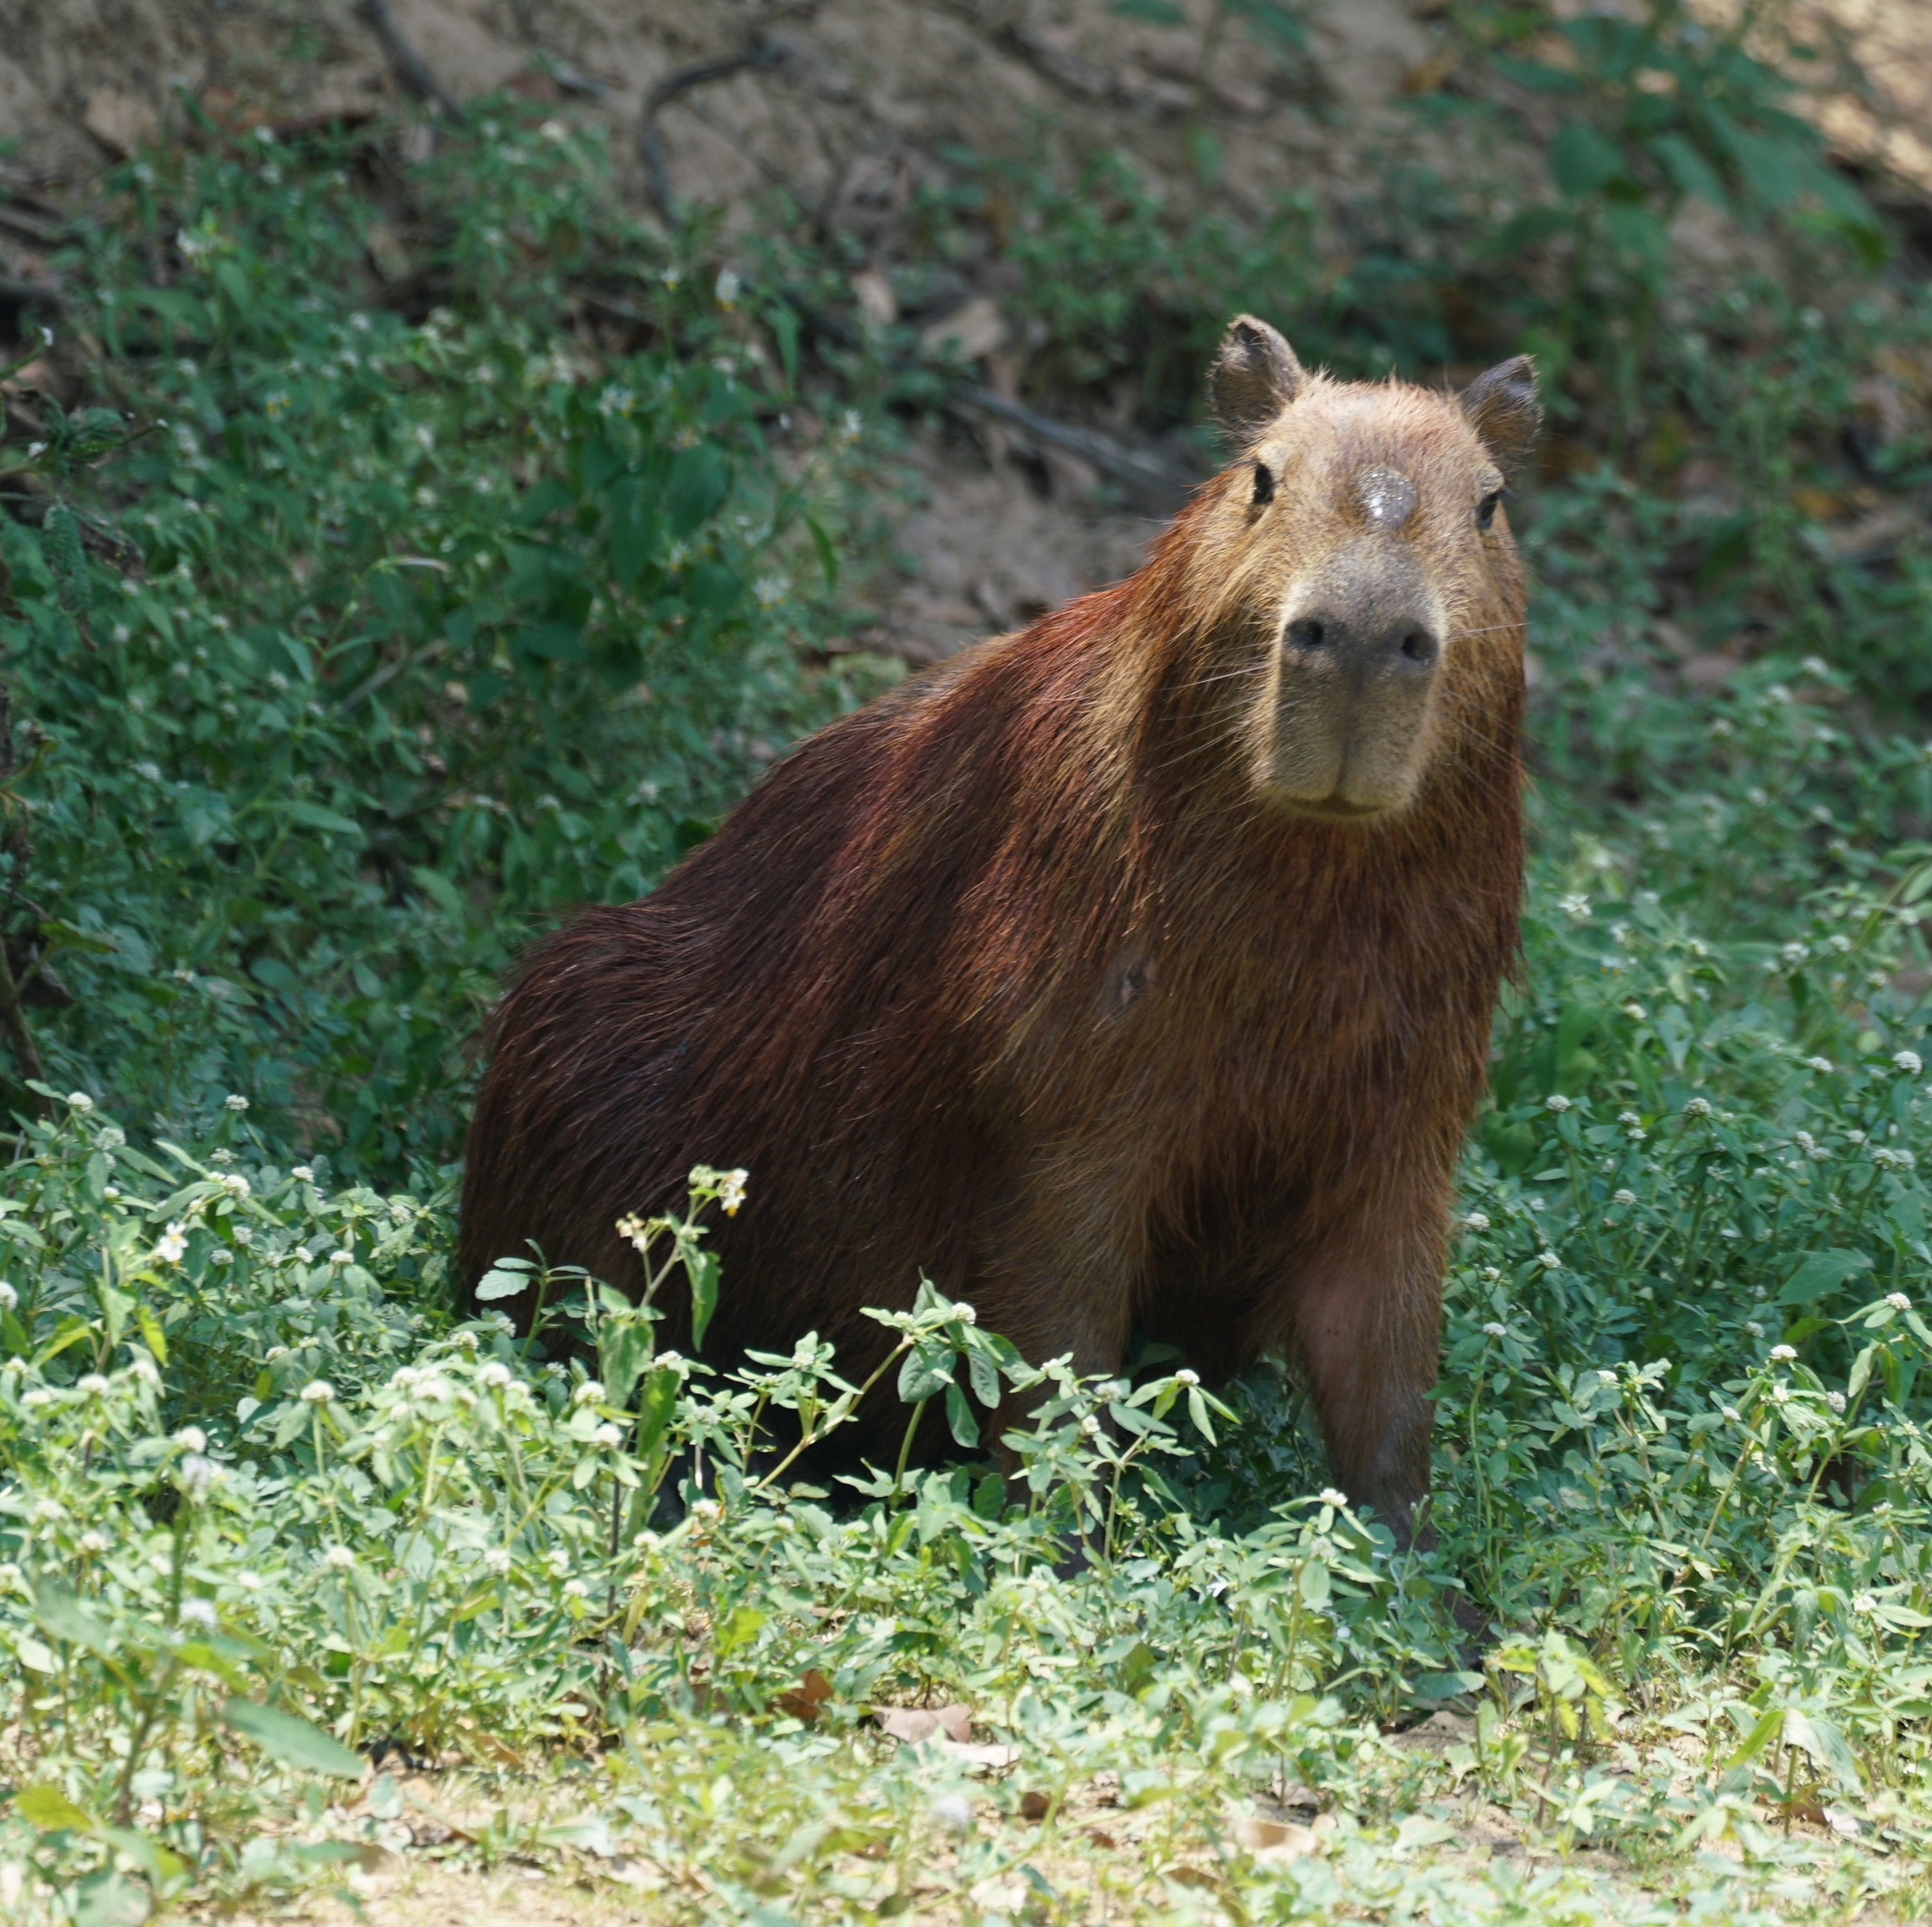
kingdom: Animalia
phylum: Chordata
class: Mammalia
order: Rodentia
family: Caviidae
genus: Hydrochoerus
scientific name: Hydrochoerus hydrochaeris
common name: Capybara
